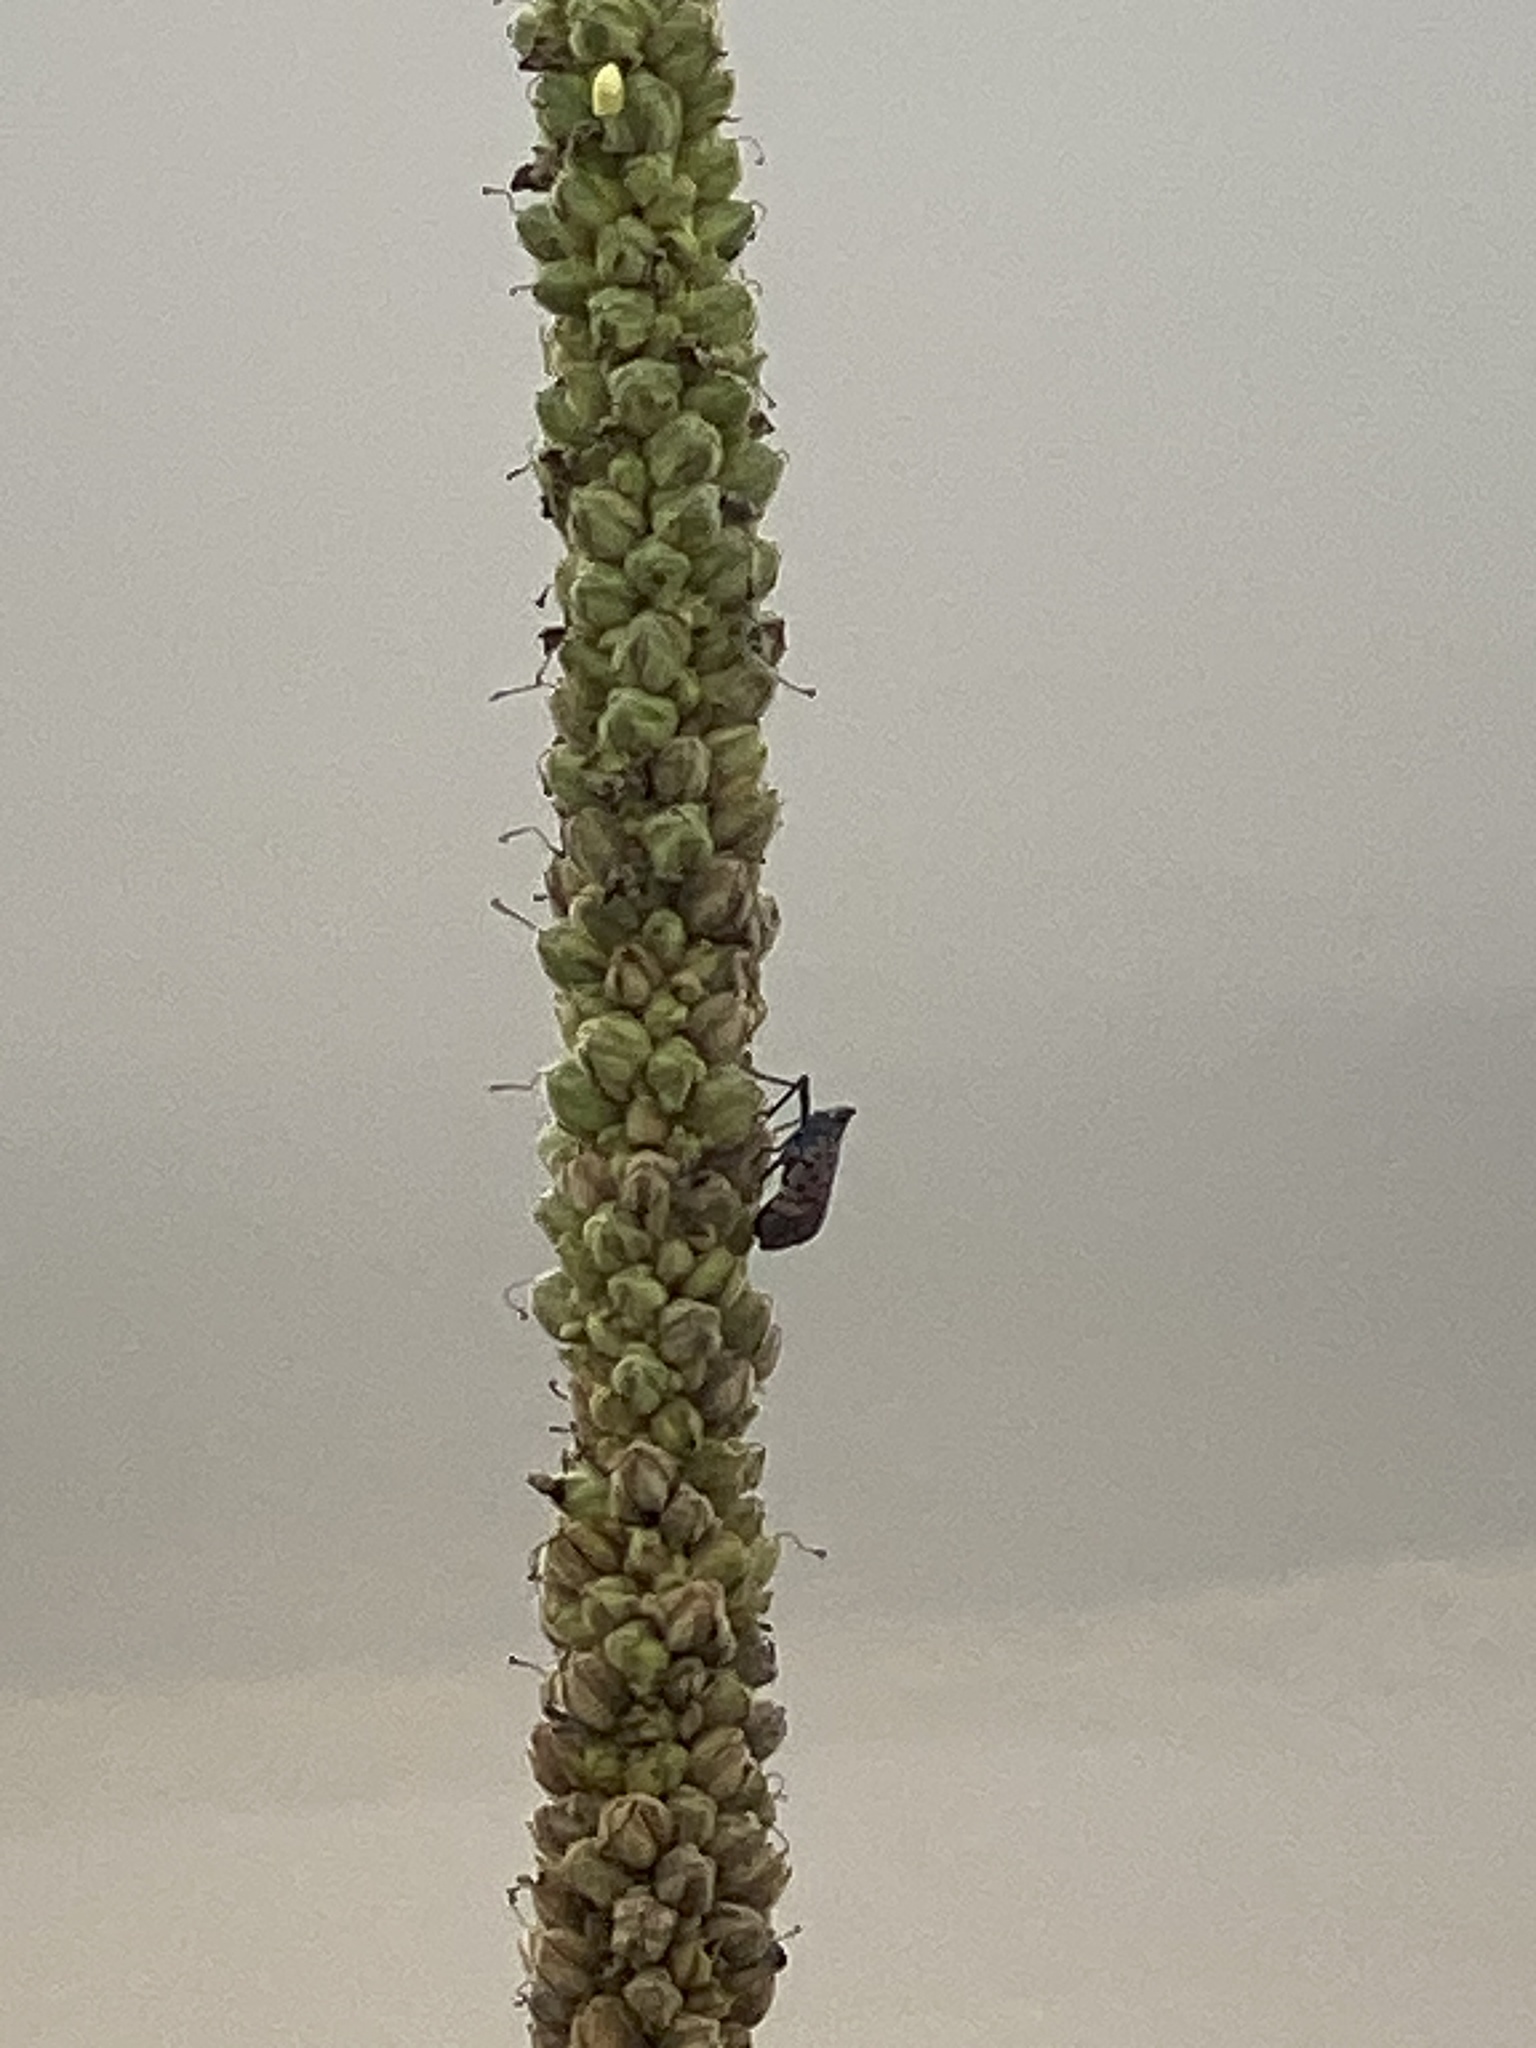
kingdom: Animalia
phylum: Arthropoda
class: Insecta
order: Hemiptera
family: Fulgoridae
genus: Lycorma
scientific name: Lycorma delicatula
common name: Spotted lanternfly
